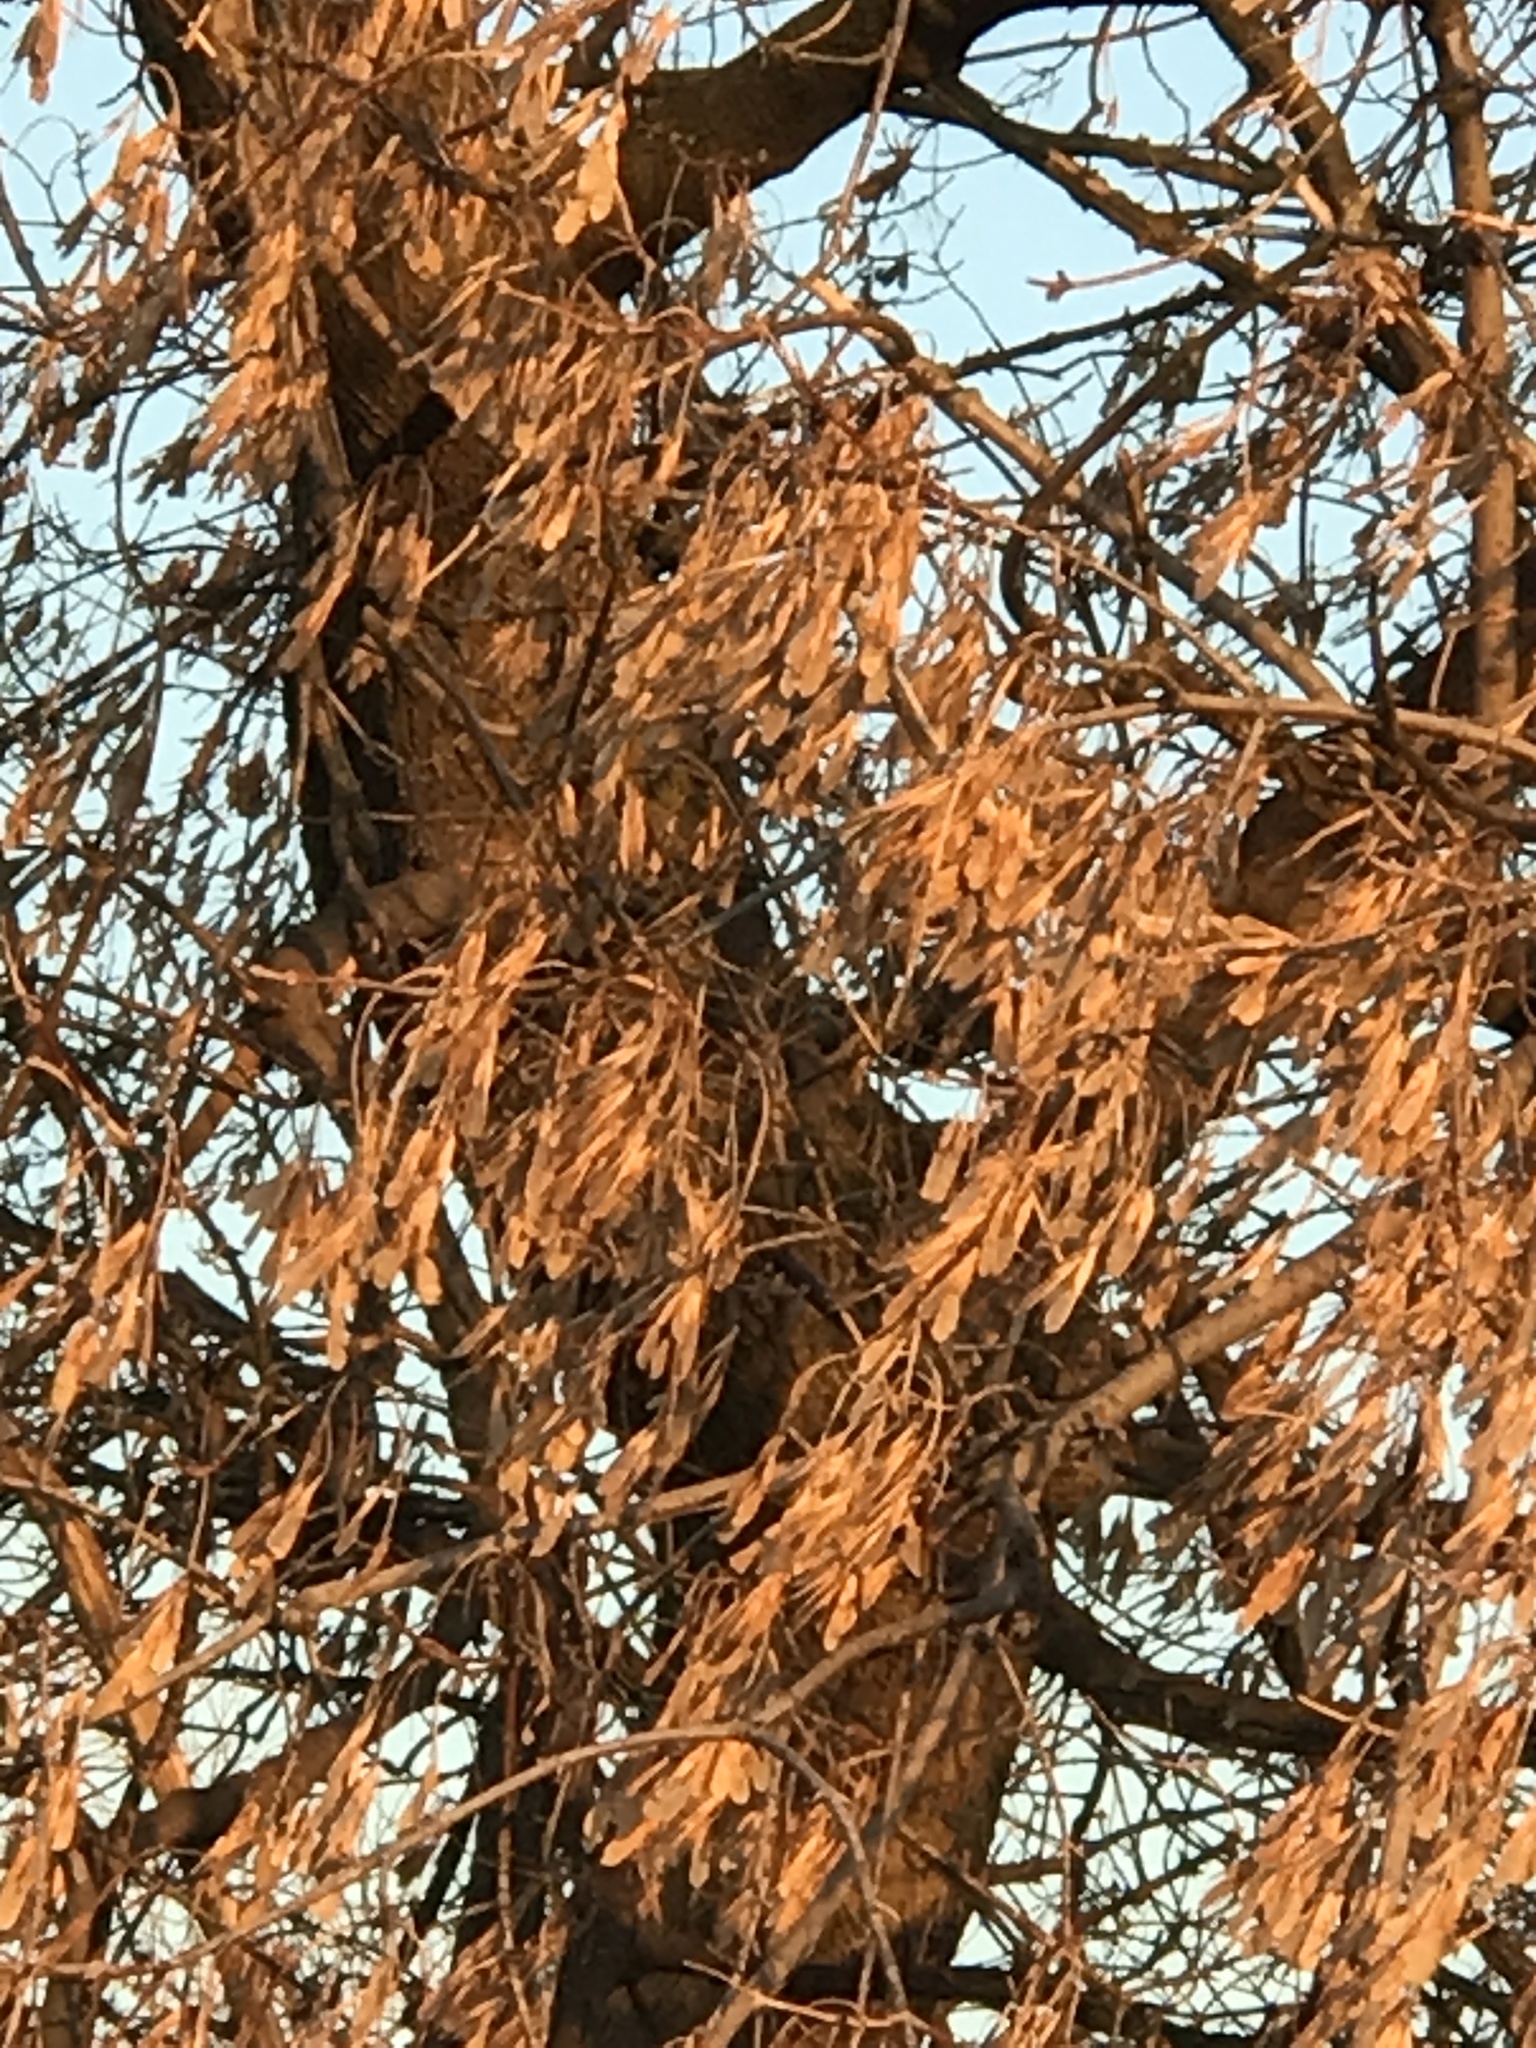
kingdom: Plantae
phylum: Tracheophyta
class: Magnoliopsida
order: Sapindales
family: Sapindaceae
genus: Acer
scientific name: Acer negundo
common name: Ashleaf maple
